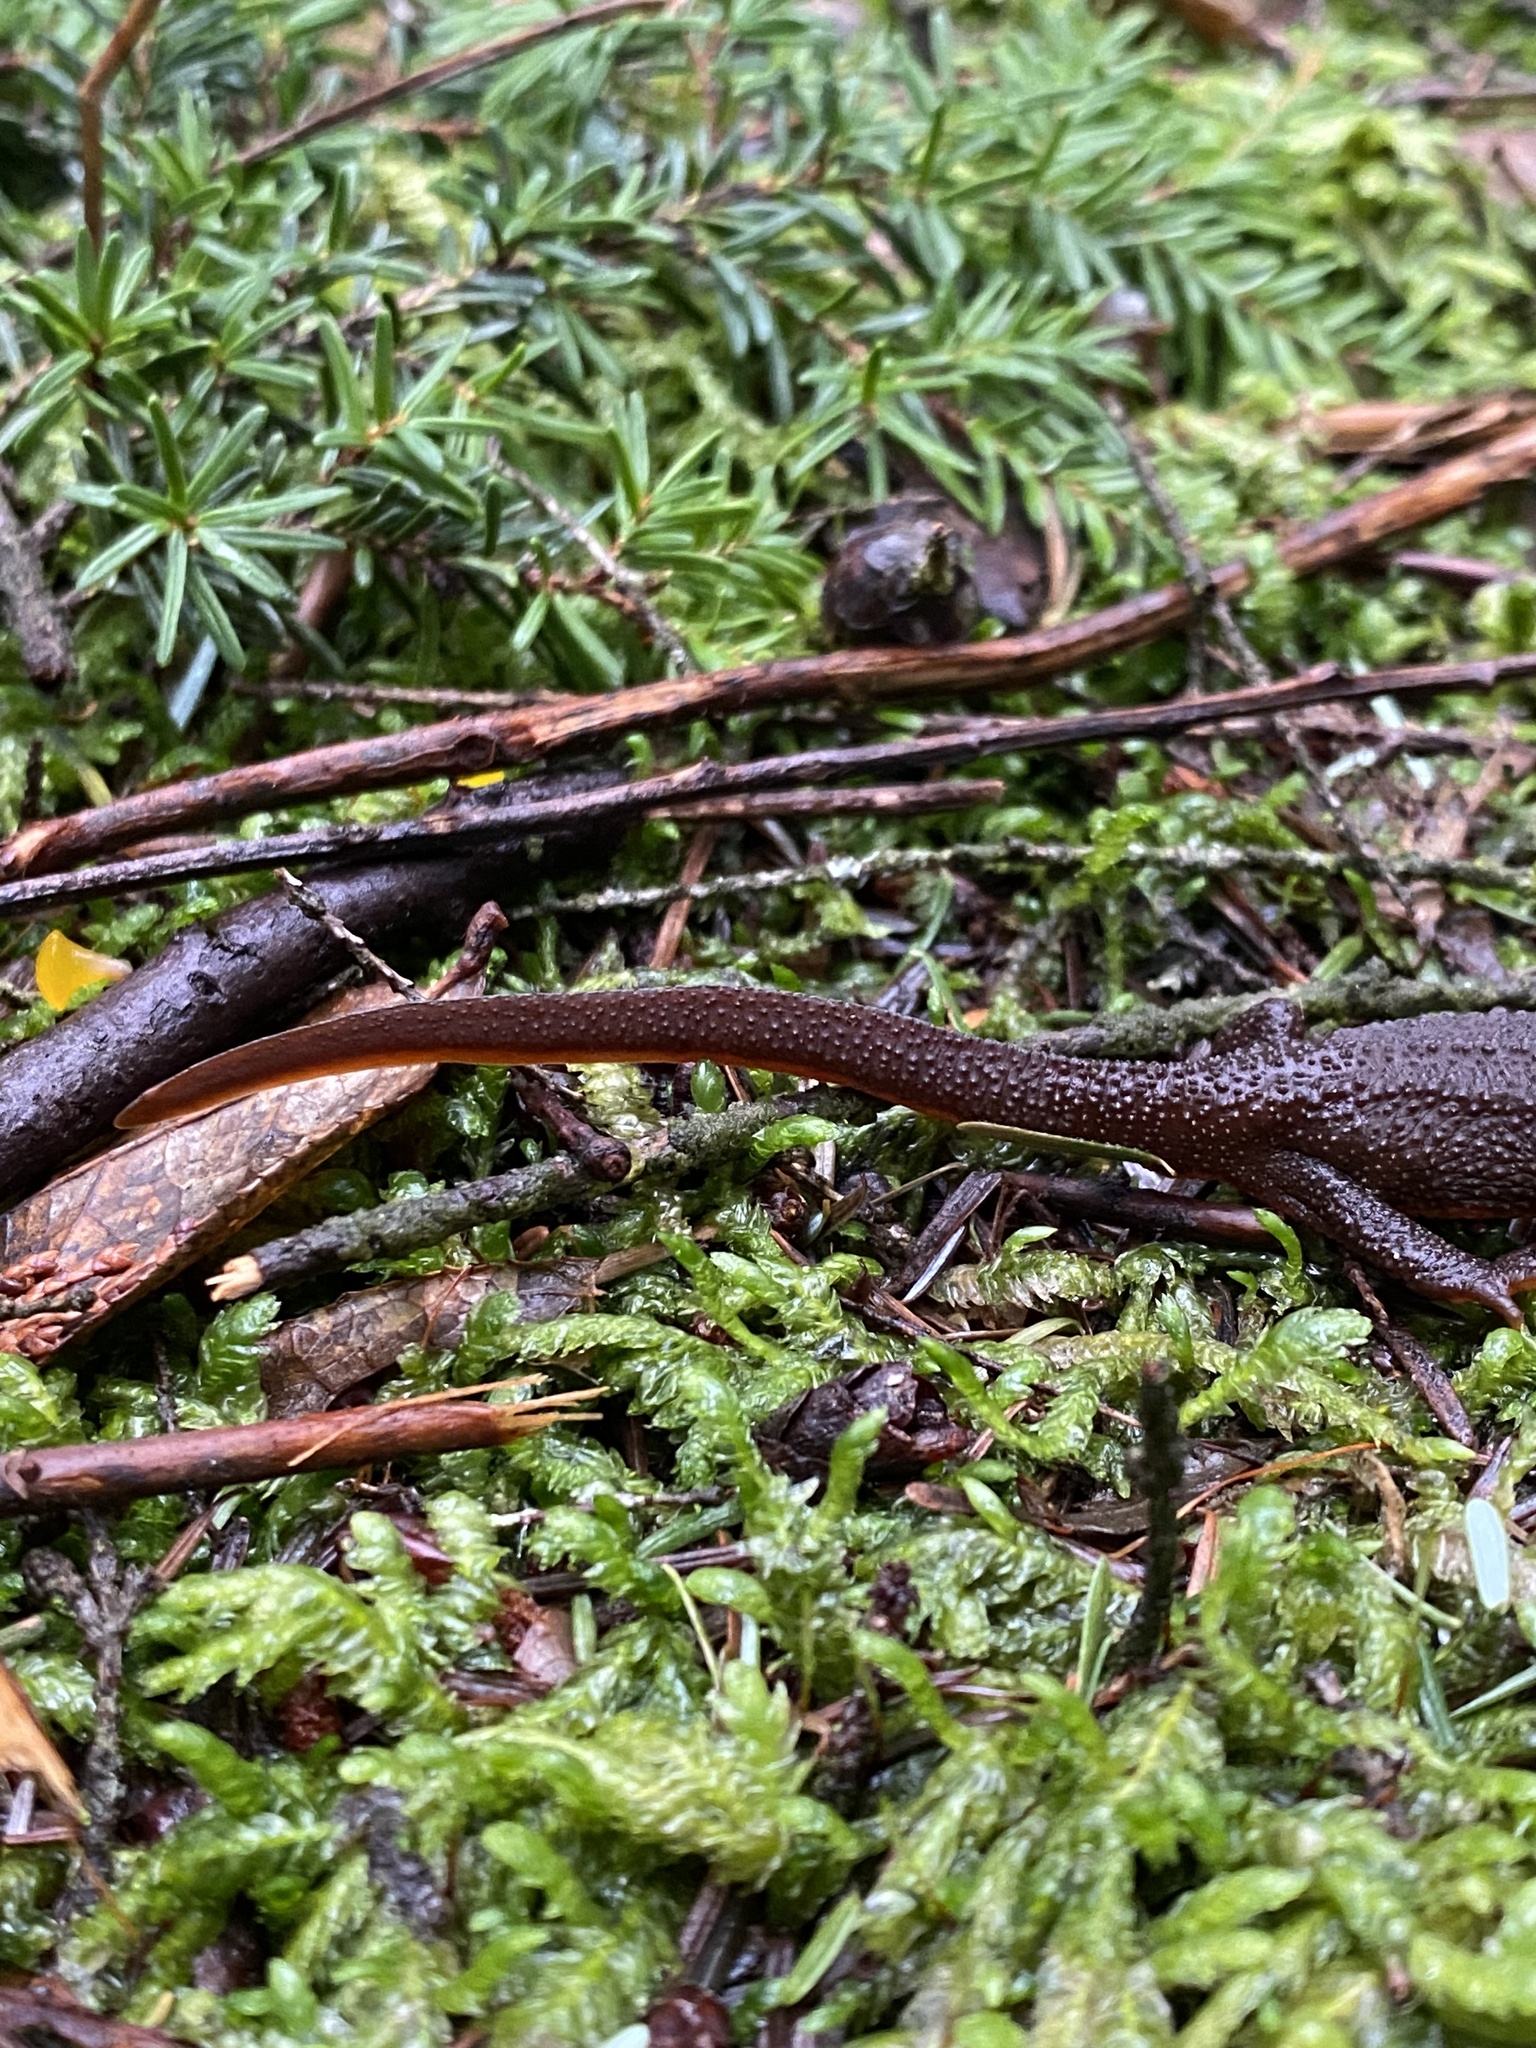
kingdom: Animalia
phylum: Chordata
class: Amphibia
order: Caudata
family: Salamandridae
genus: Taricha
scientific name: Taricha granulosa
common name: Roughskin newt
